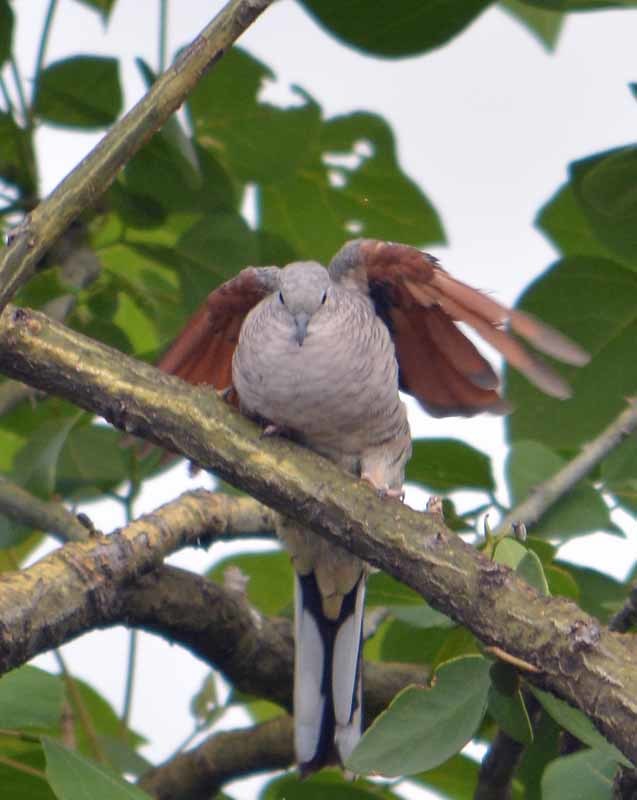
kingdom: Animalia
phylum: Chordata
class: Aves
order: Columbiformes
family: Columbidae
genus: Columbina
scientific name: Columbina inca
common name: Inca dove
